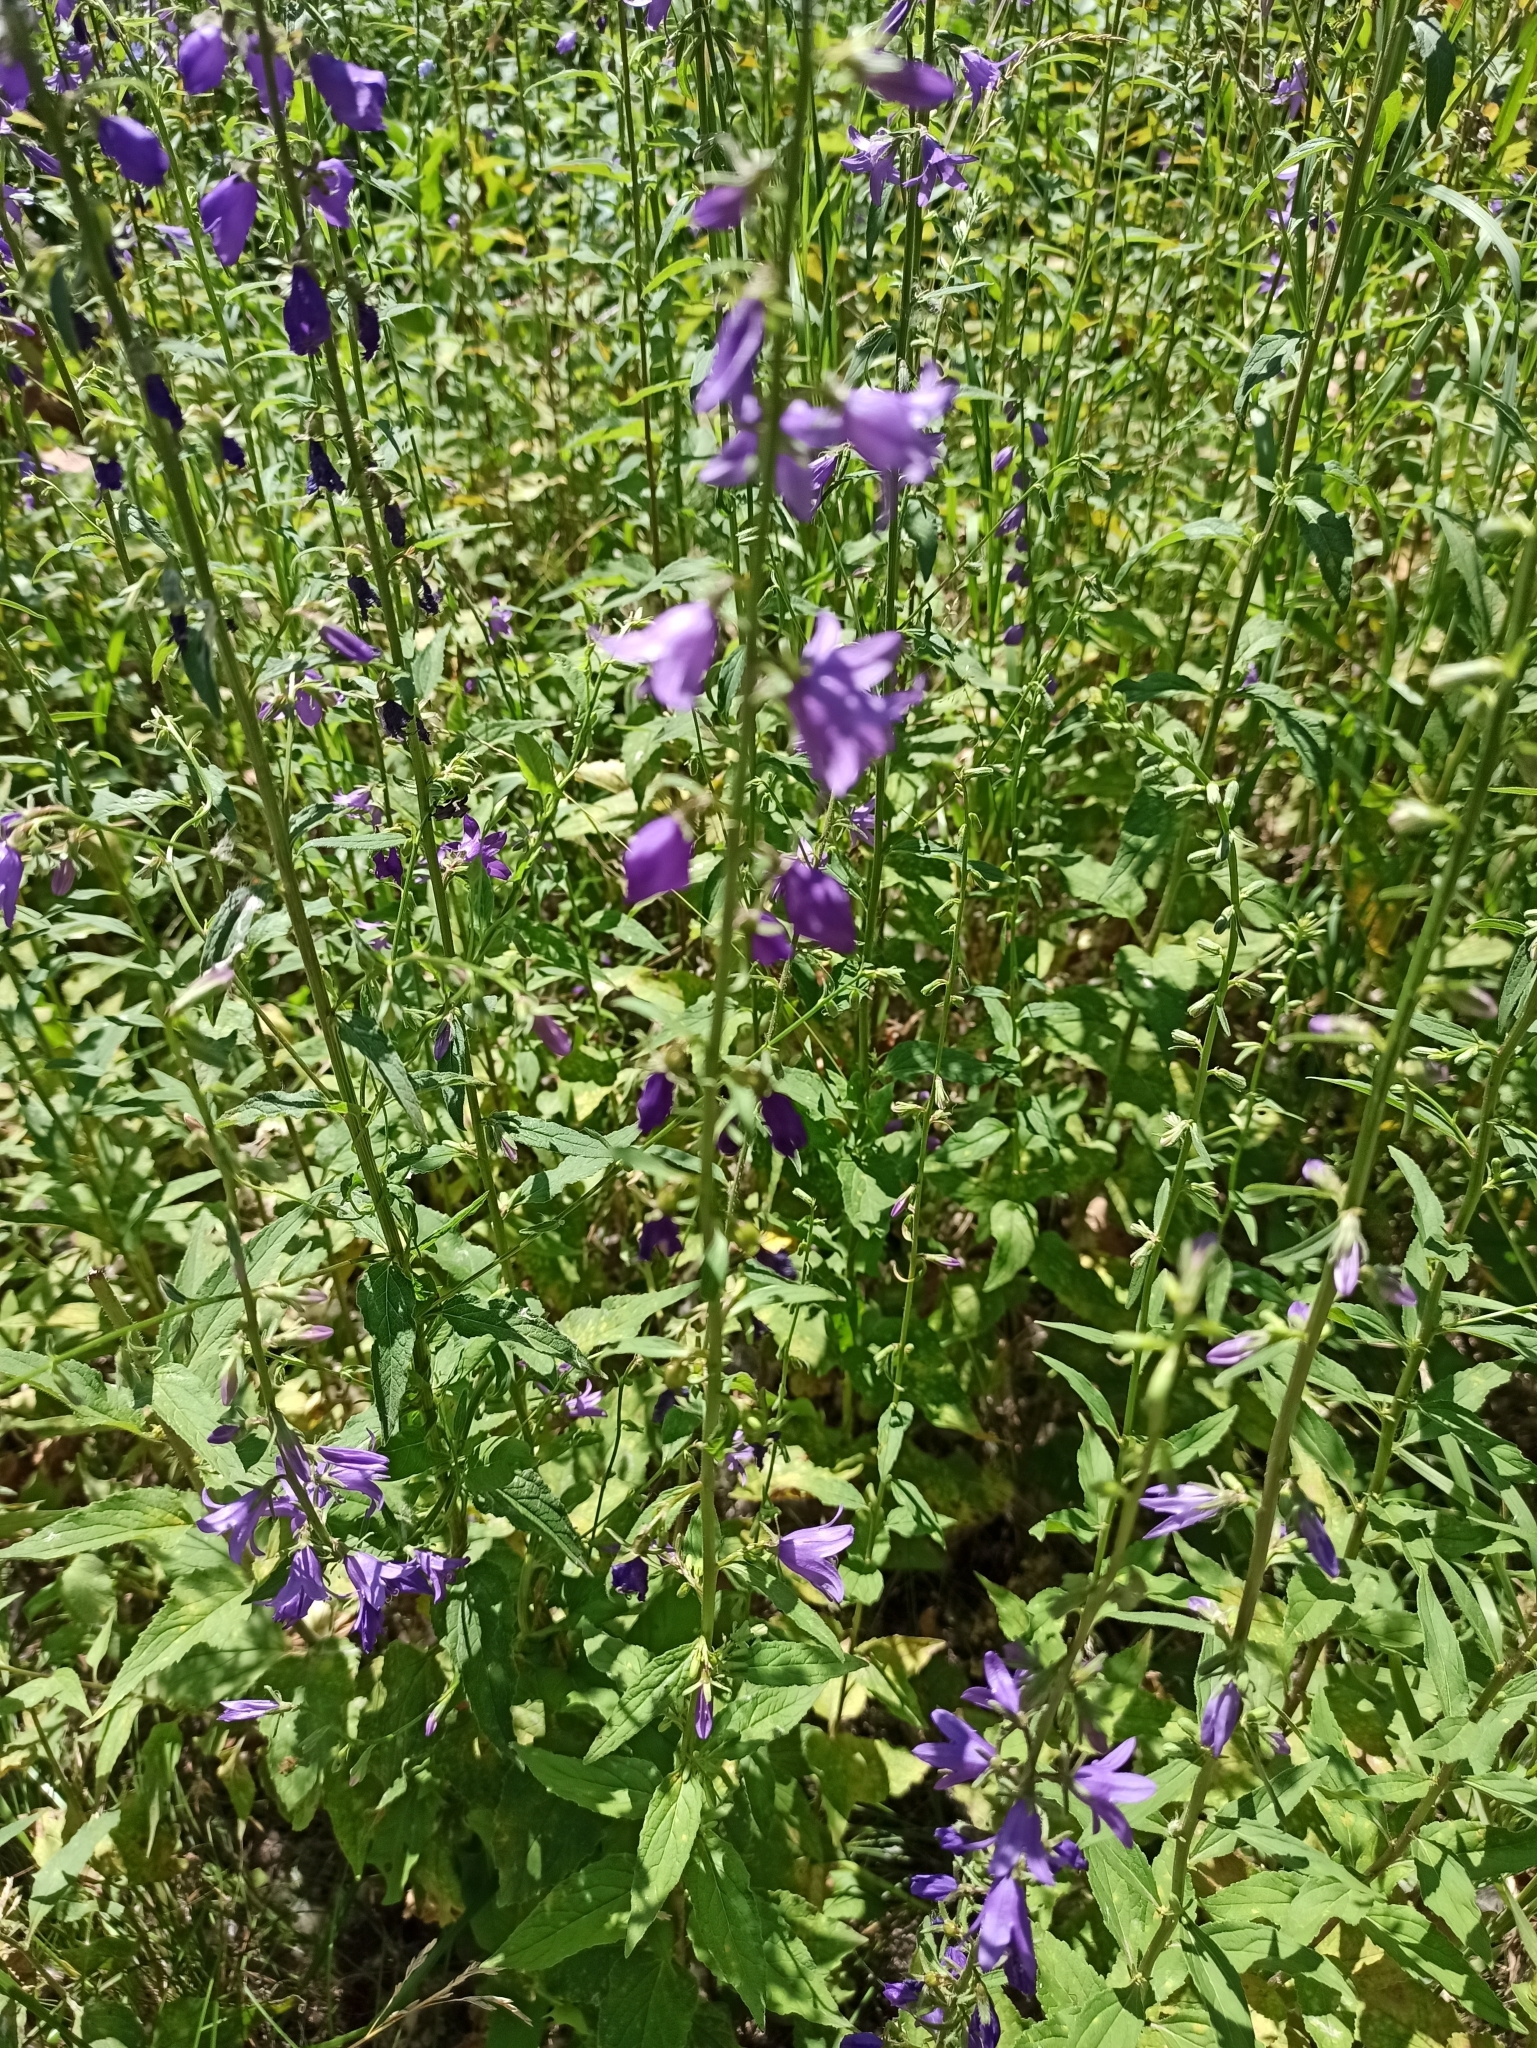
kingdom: Plantae
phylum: Tracheophyta
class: Magnoliopsida
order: Asterales
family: Campanulaceae
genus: Campanula
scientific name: Campanula rapunculoides
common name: Creeping bellflower
